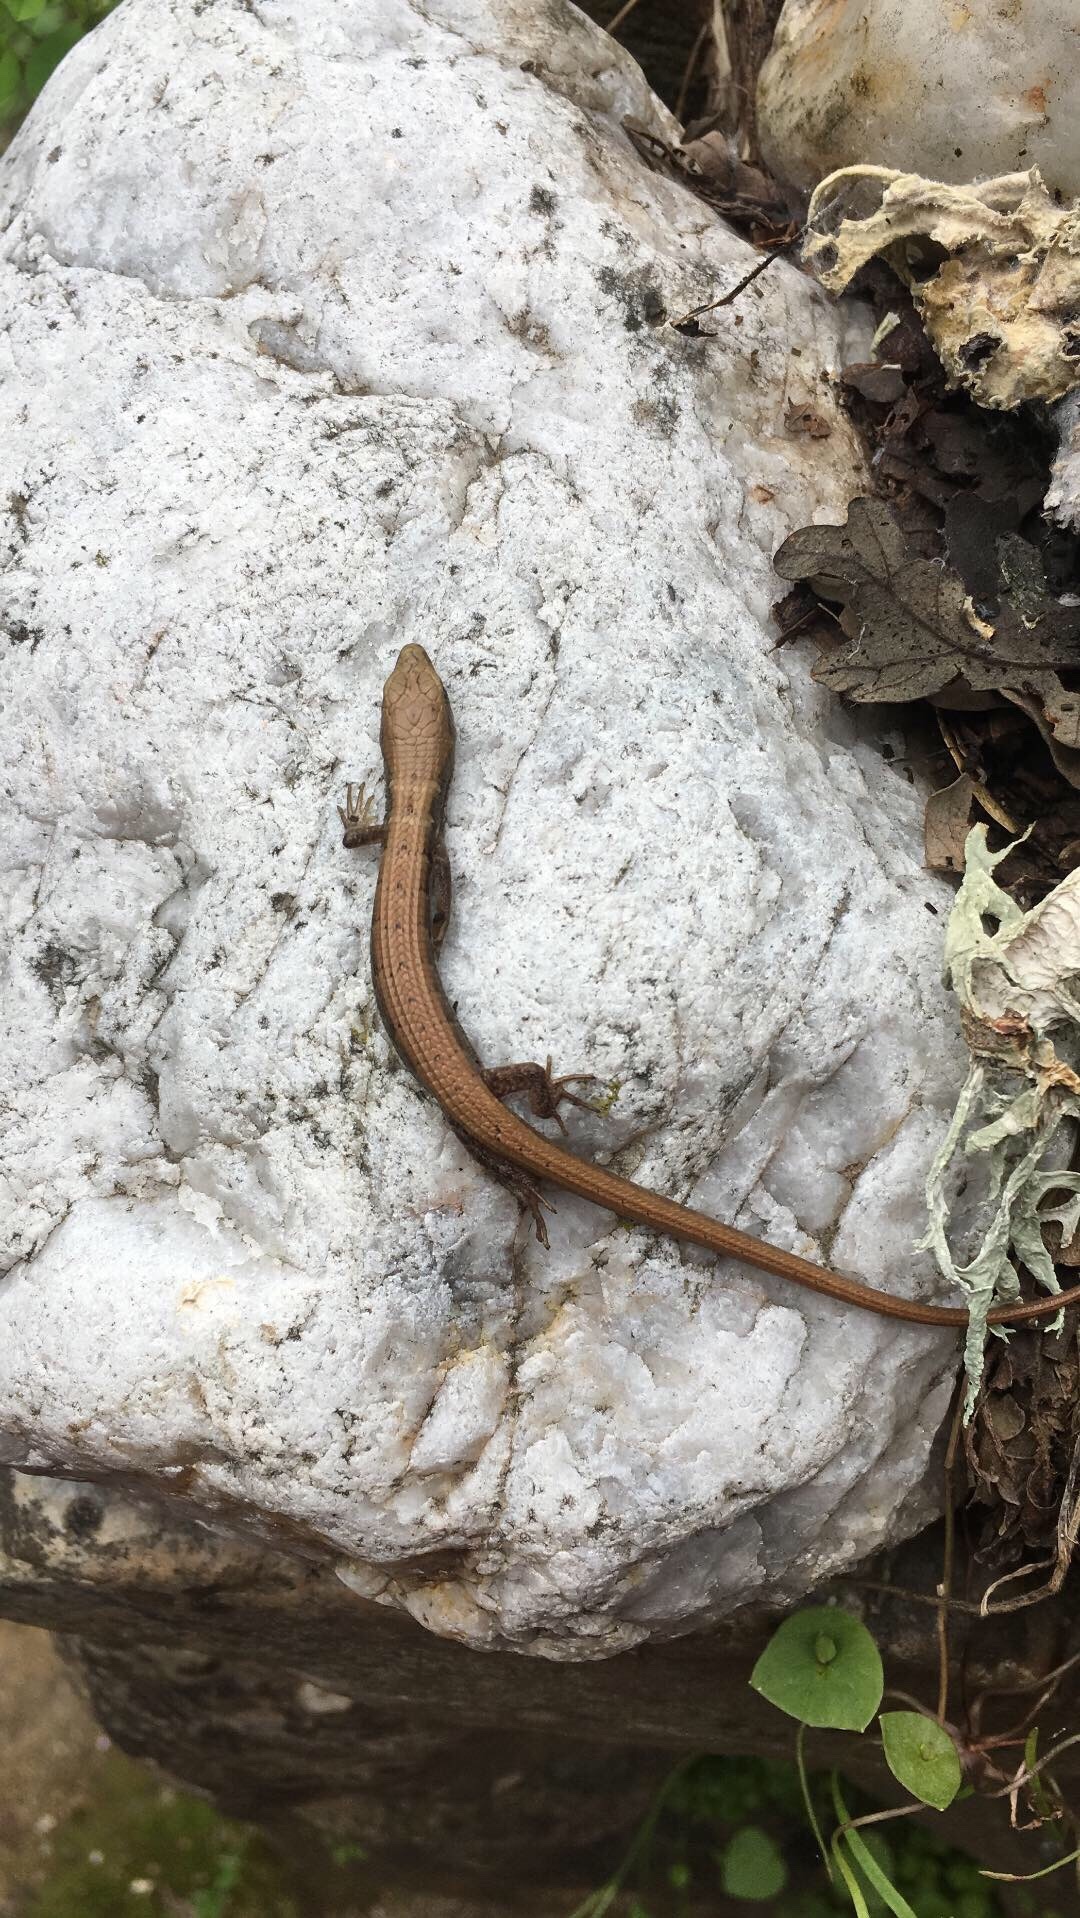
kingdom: Animalia
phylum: Chordata
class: Squamata
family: Anguidae
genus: Elgaria
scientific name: Elgaria multicarinata
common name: Southern alligator lizard
